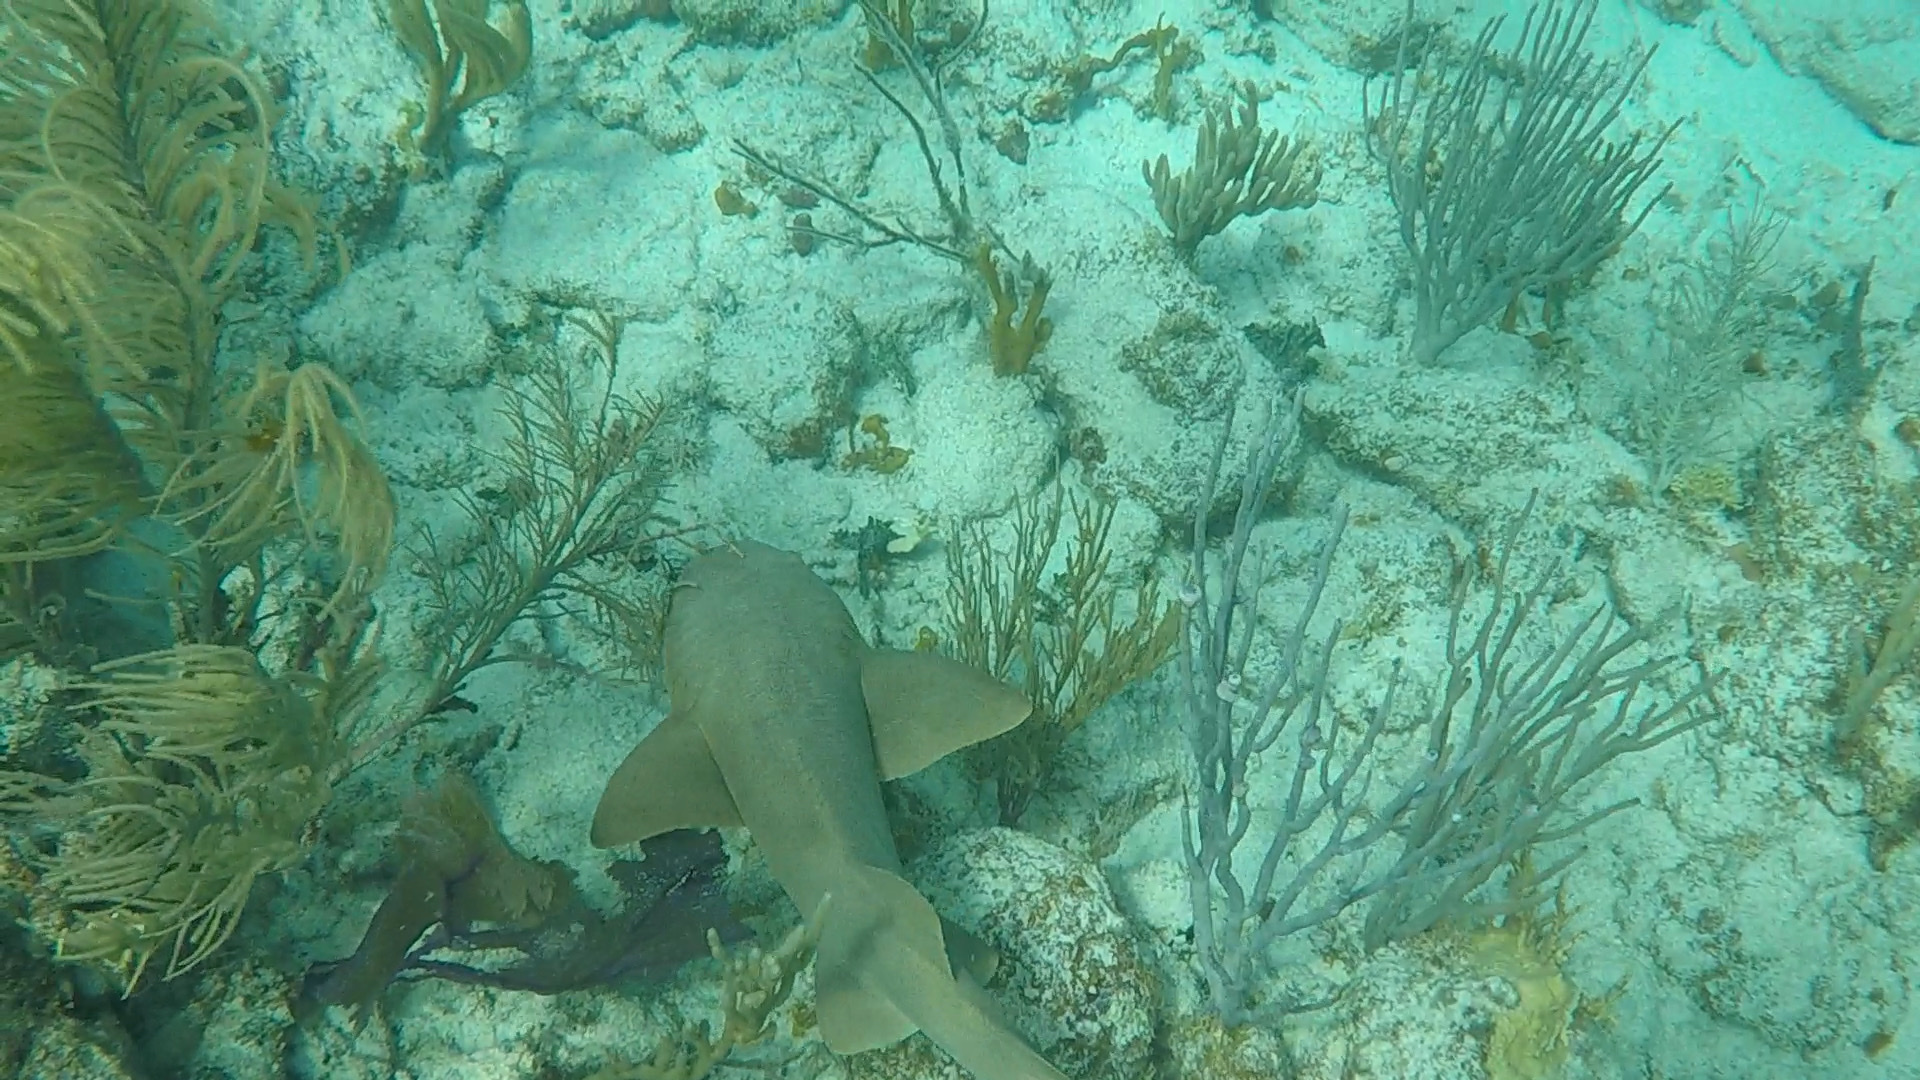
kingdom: Animalia
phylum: Chordata
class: Elasmobranchii
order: Orectolobiformes
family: Ginglymostomatidae
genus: Ginglymostoma
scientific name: Ginglymostoma cirratum
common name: Nurse shark
